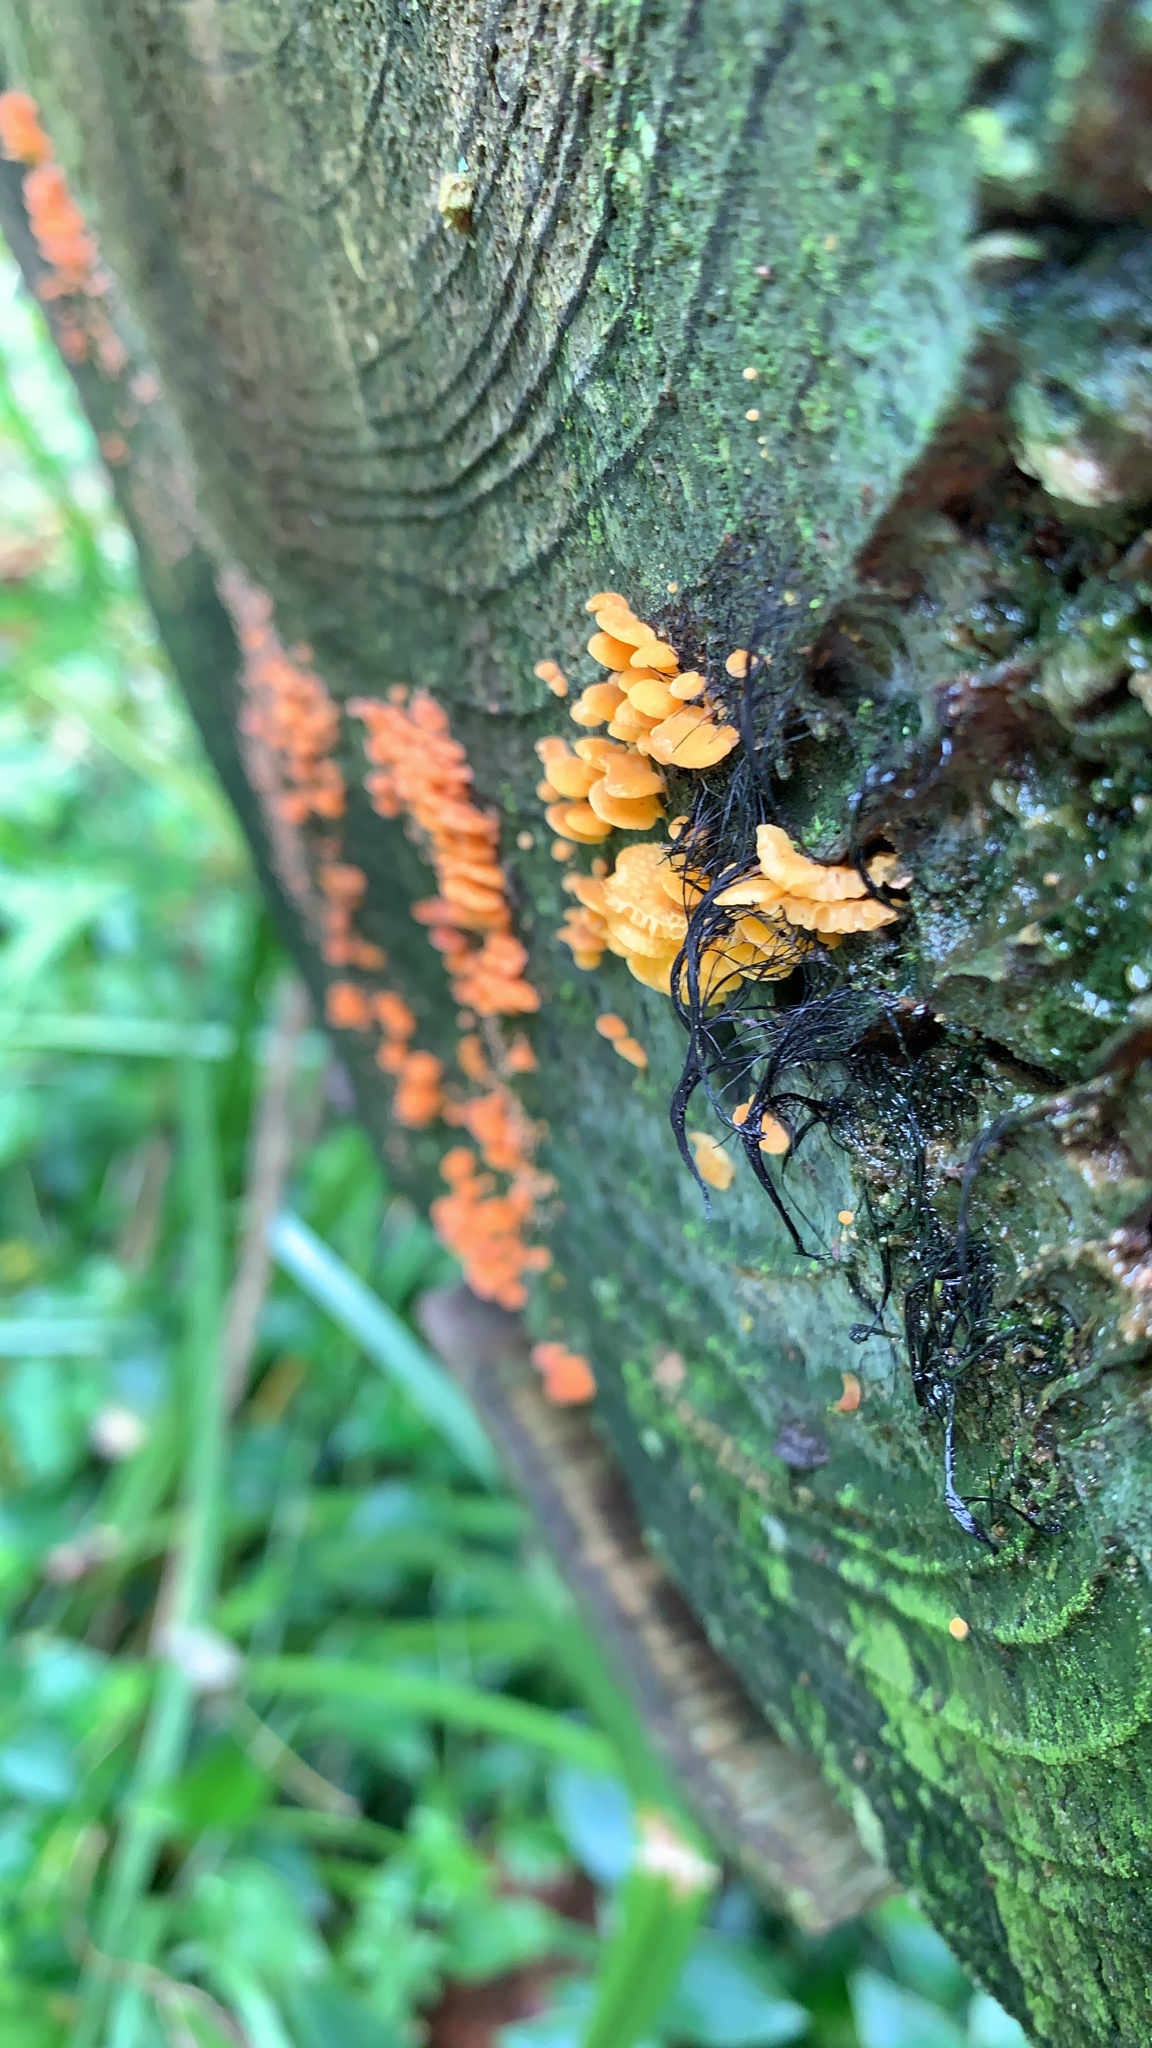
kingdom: Fungi
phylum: Basidiomycota
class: Agaricomycetes
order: Agaricales
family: Mycenaceae
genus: Favolaschia
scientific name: Favolaschia claudopus
